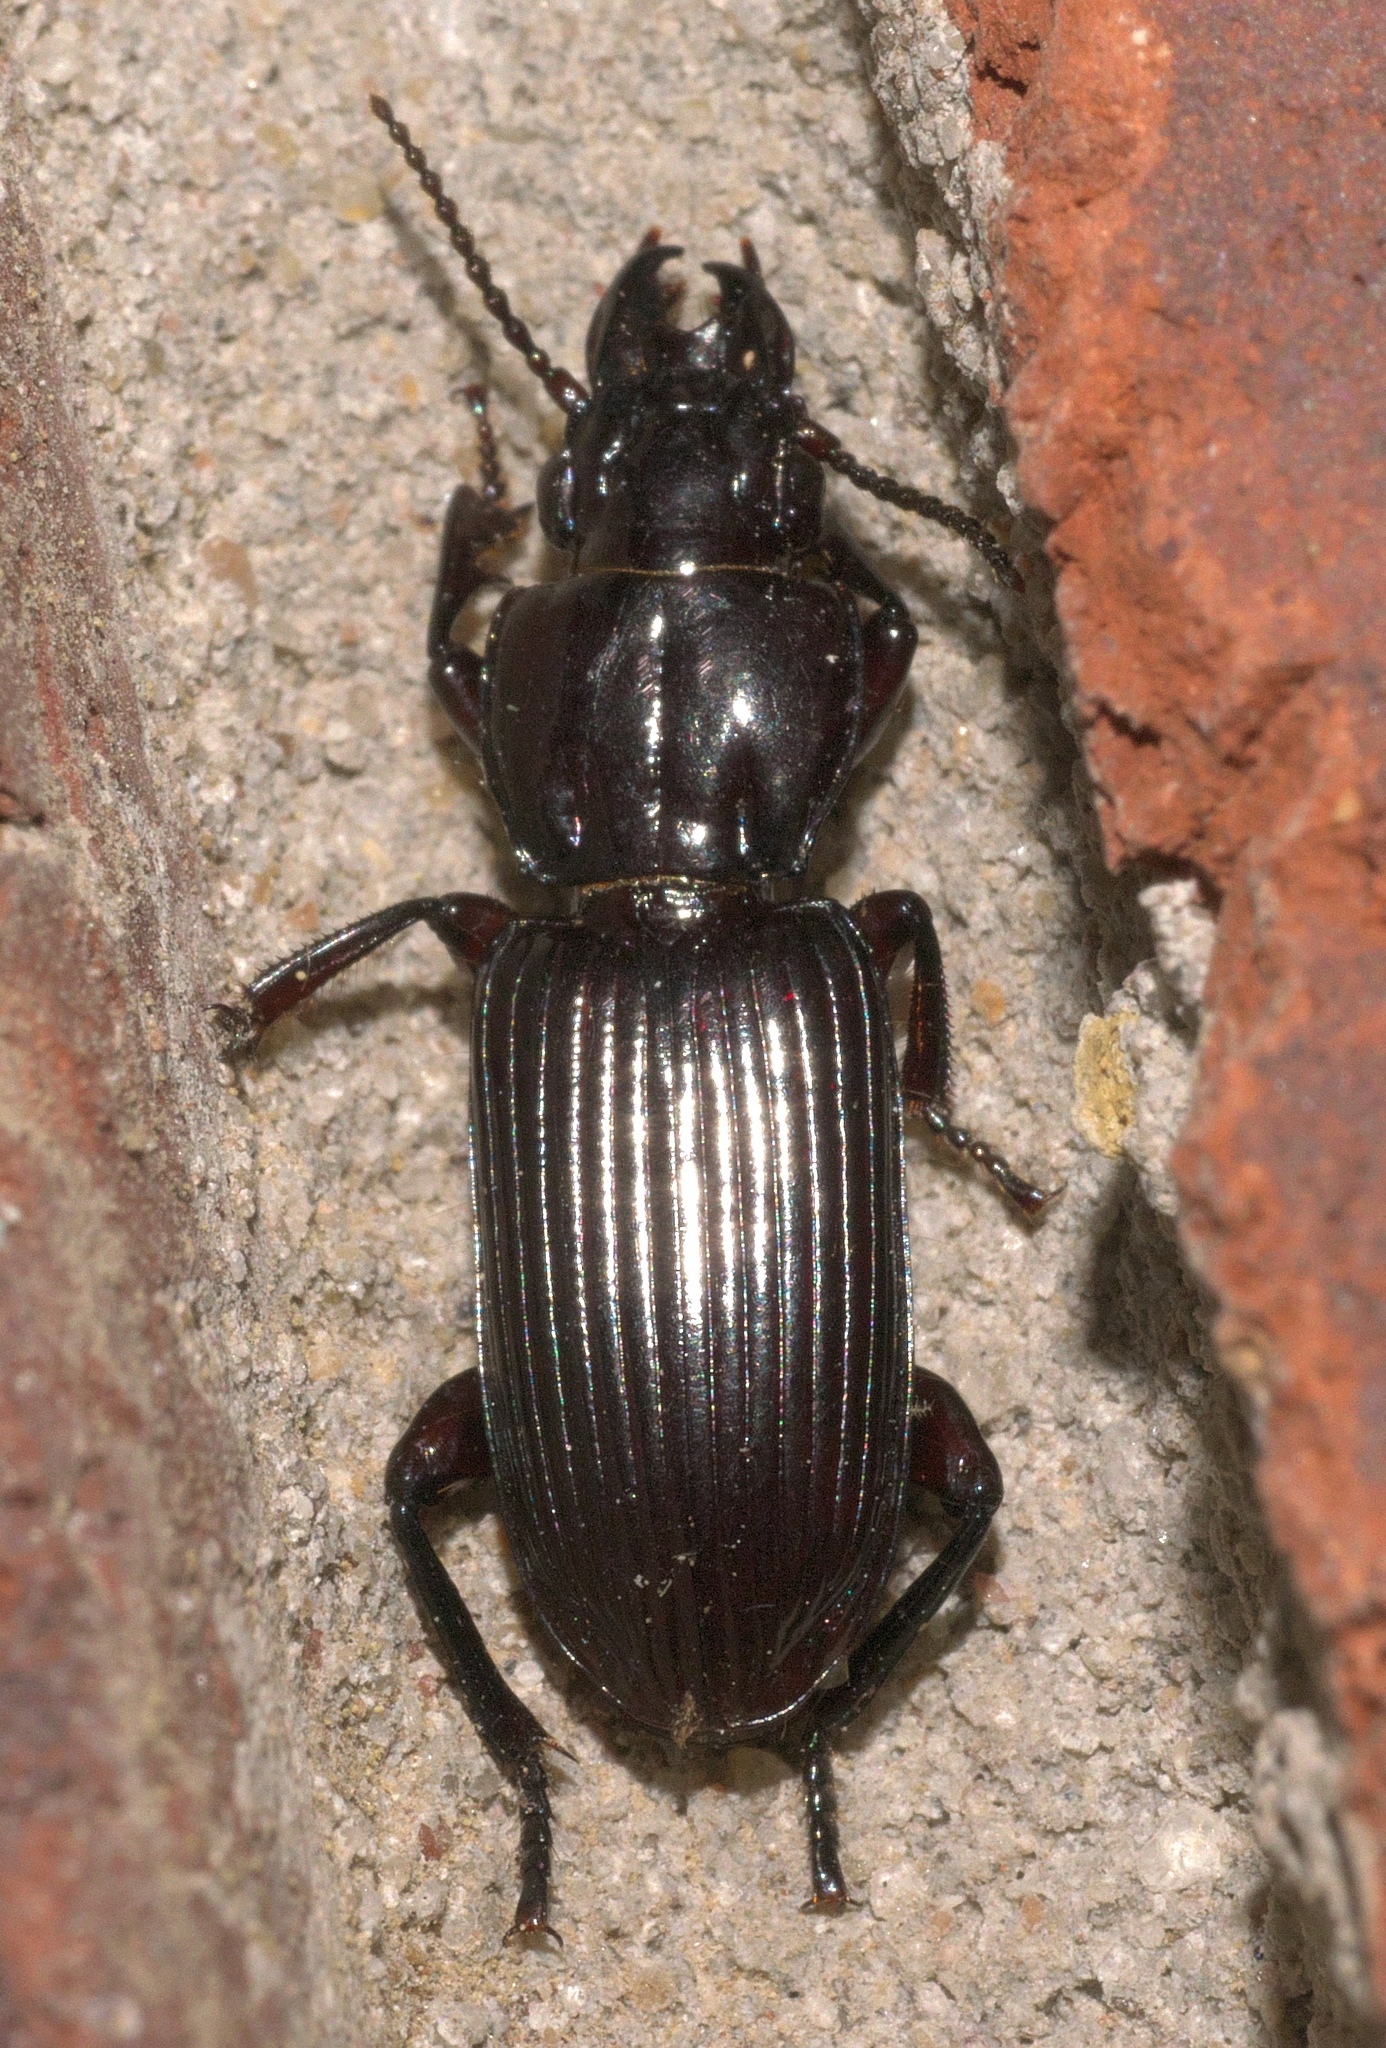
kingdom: Animalia
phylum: Arthropoda
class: Insecta
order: Coleoptera
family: Carabidae
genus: Morion
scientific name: Morion monilicornis
